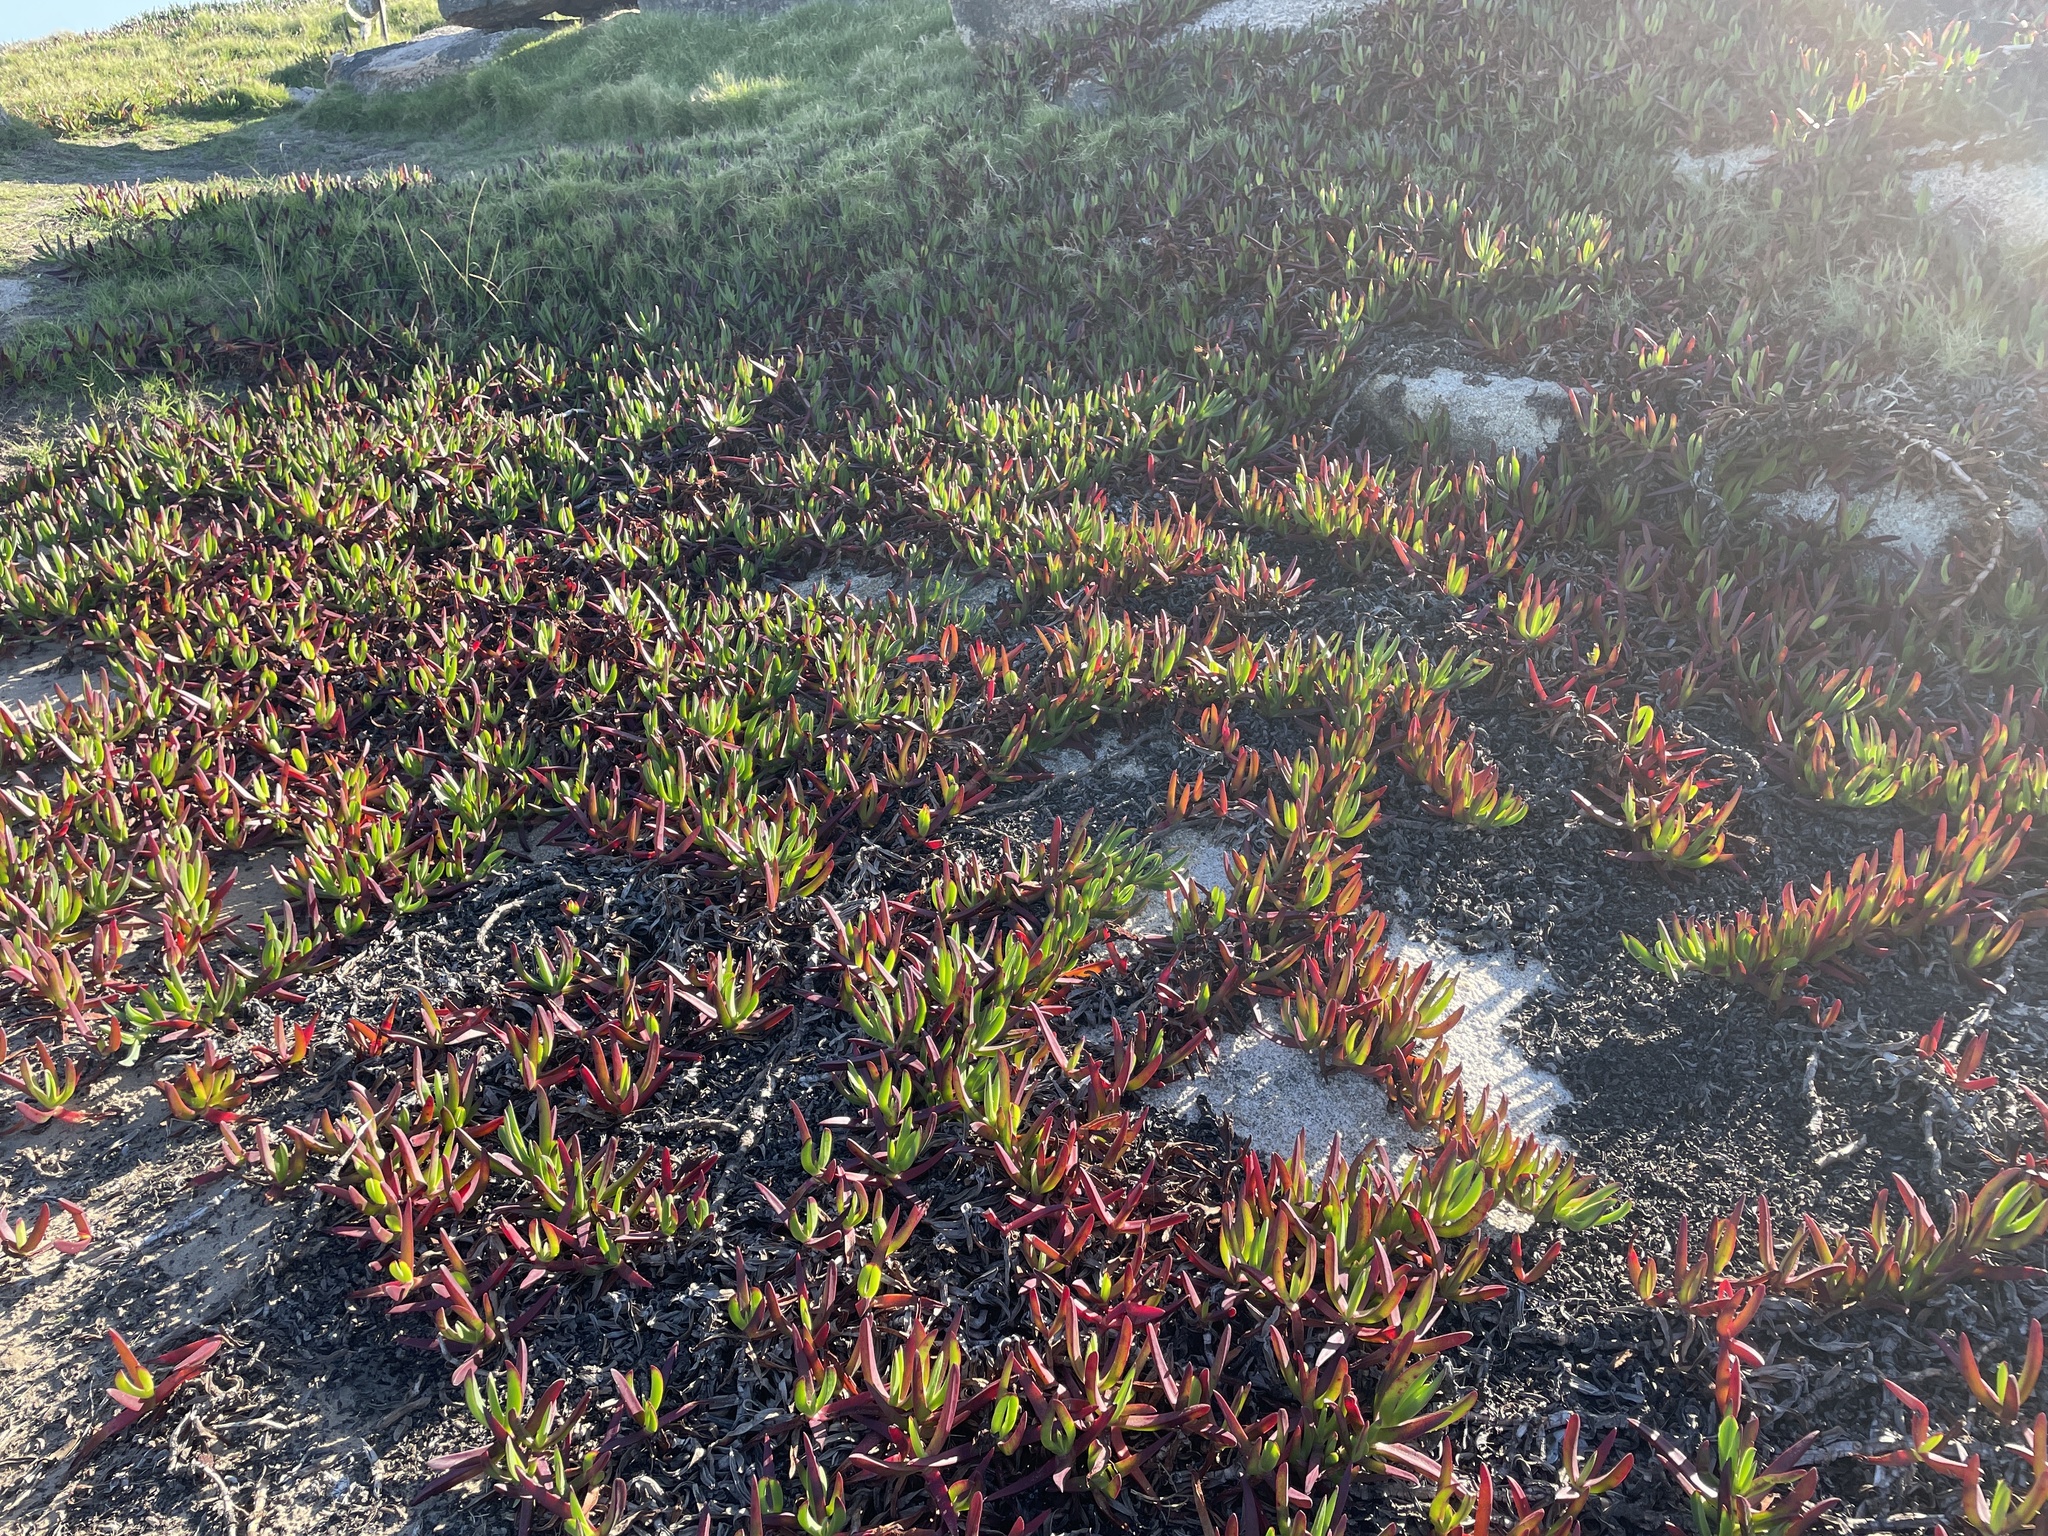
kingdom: Plantae
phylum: Tracheophyta
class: Magnoliopsida
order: Caryophyllales
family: Aizoaceae
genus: Carpobrotus
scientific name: Carpobrotus edulis
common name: Hottentot-fig
